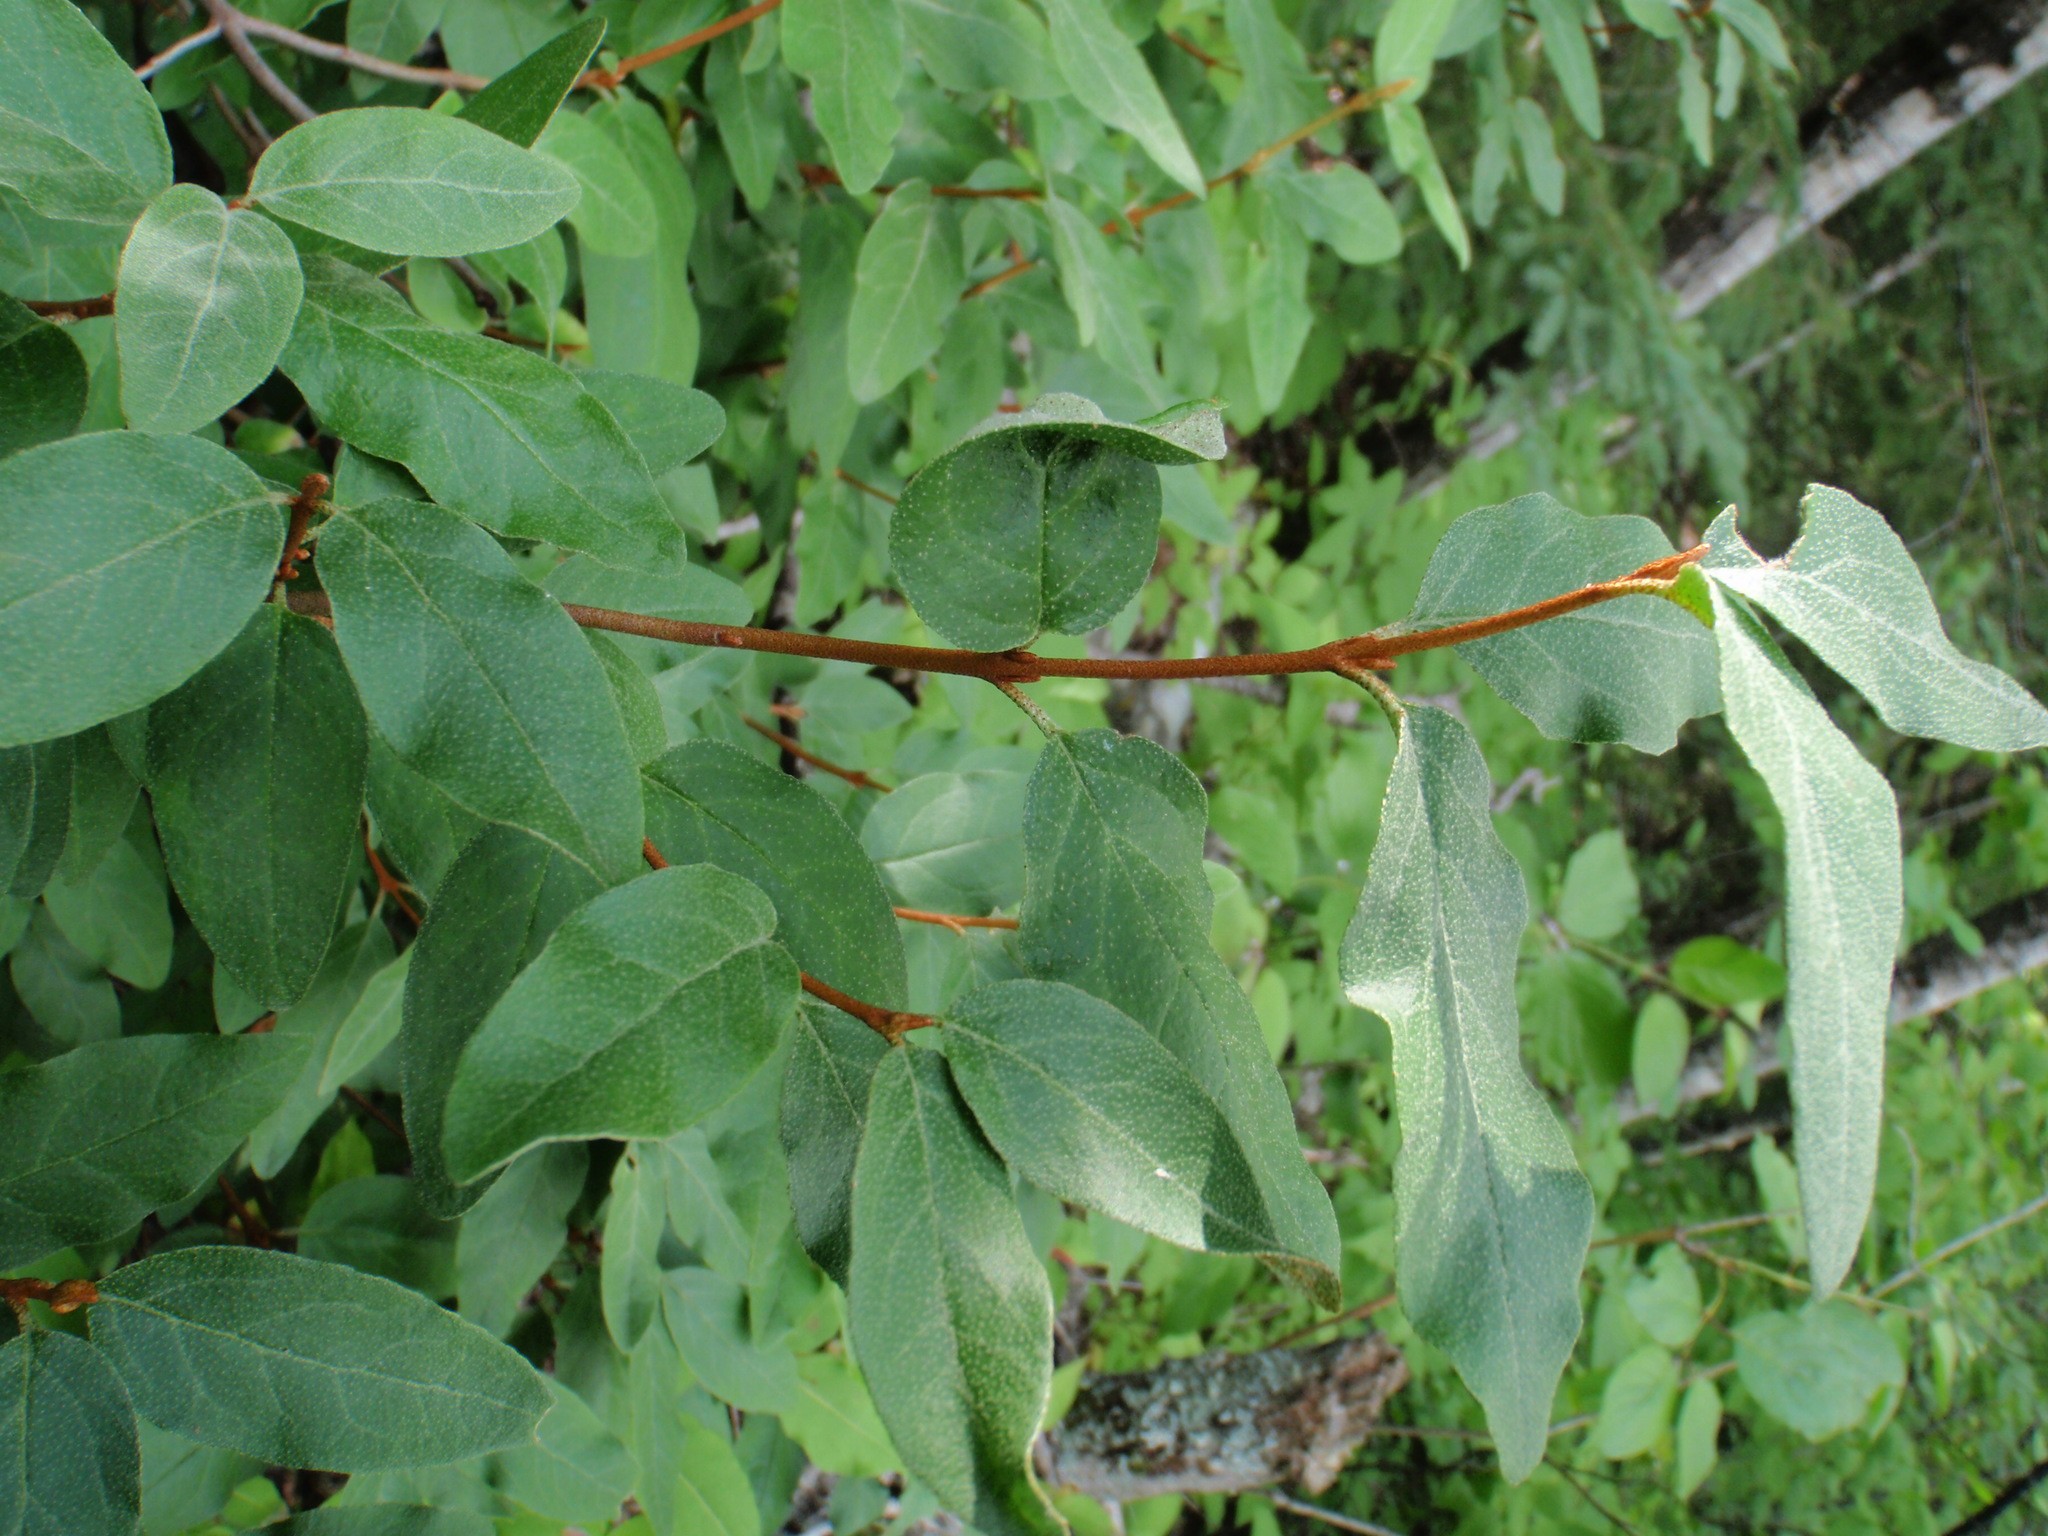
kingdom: Plantae
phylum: Tracheophyta
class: Magnoliopsida
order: Rosales
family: Elaeagnaceae
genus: Shepherdia
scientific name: Shepherdia canadensis
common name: Soapberry
